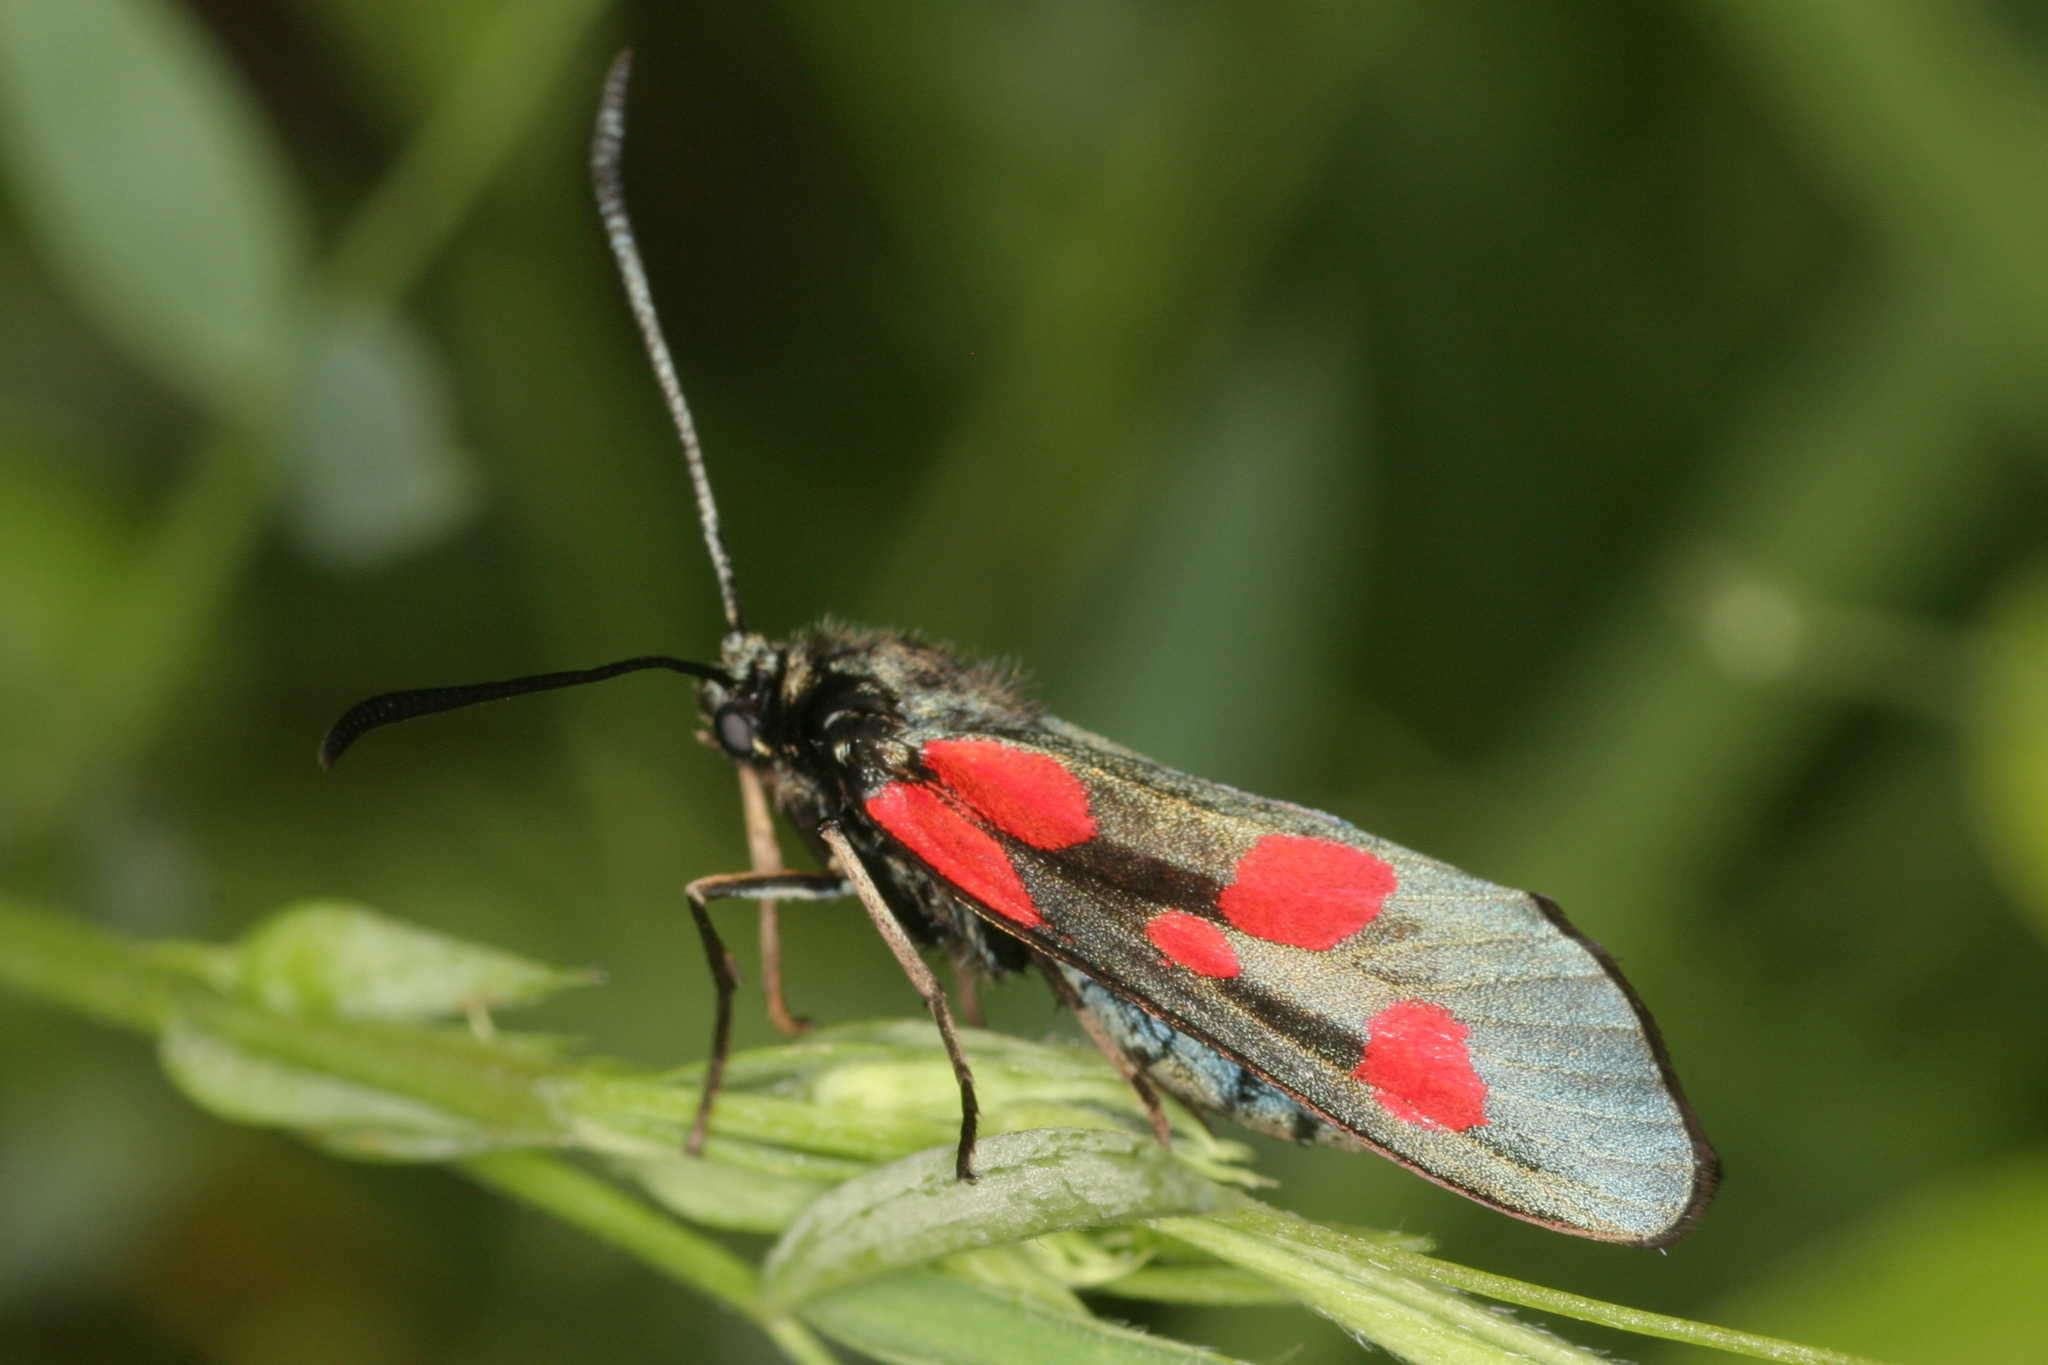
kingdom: Animalia
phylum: Arthropoda
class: Insecta
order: Lepidoptera
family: Zygaenidae
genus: Zygaena
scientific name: Zygaena viciae
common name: New forest burnet
